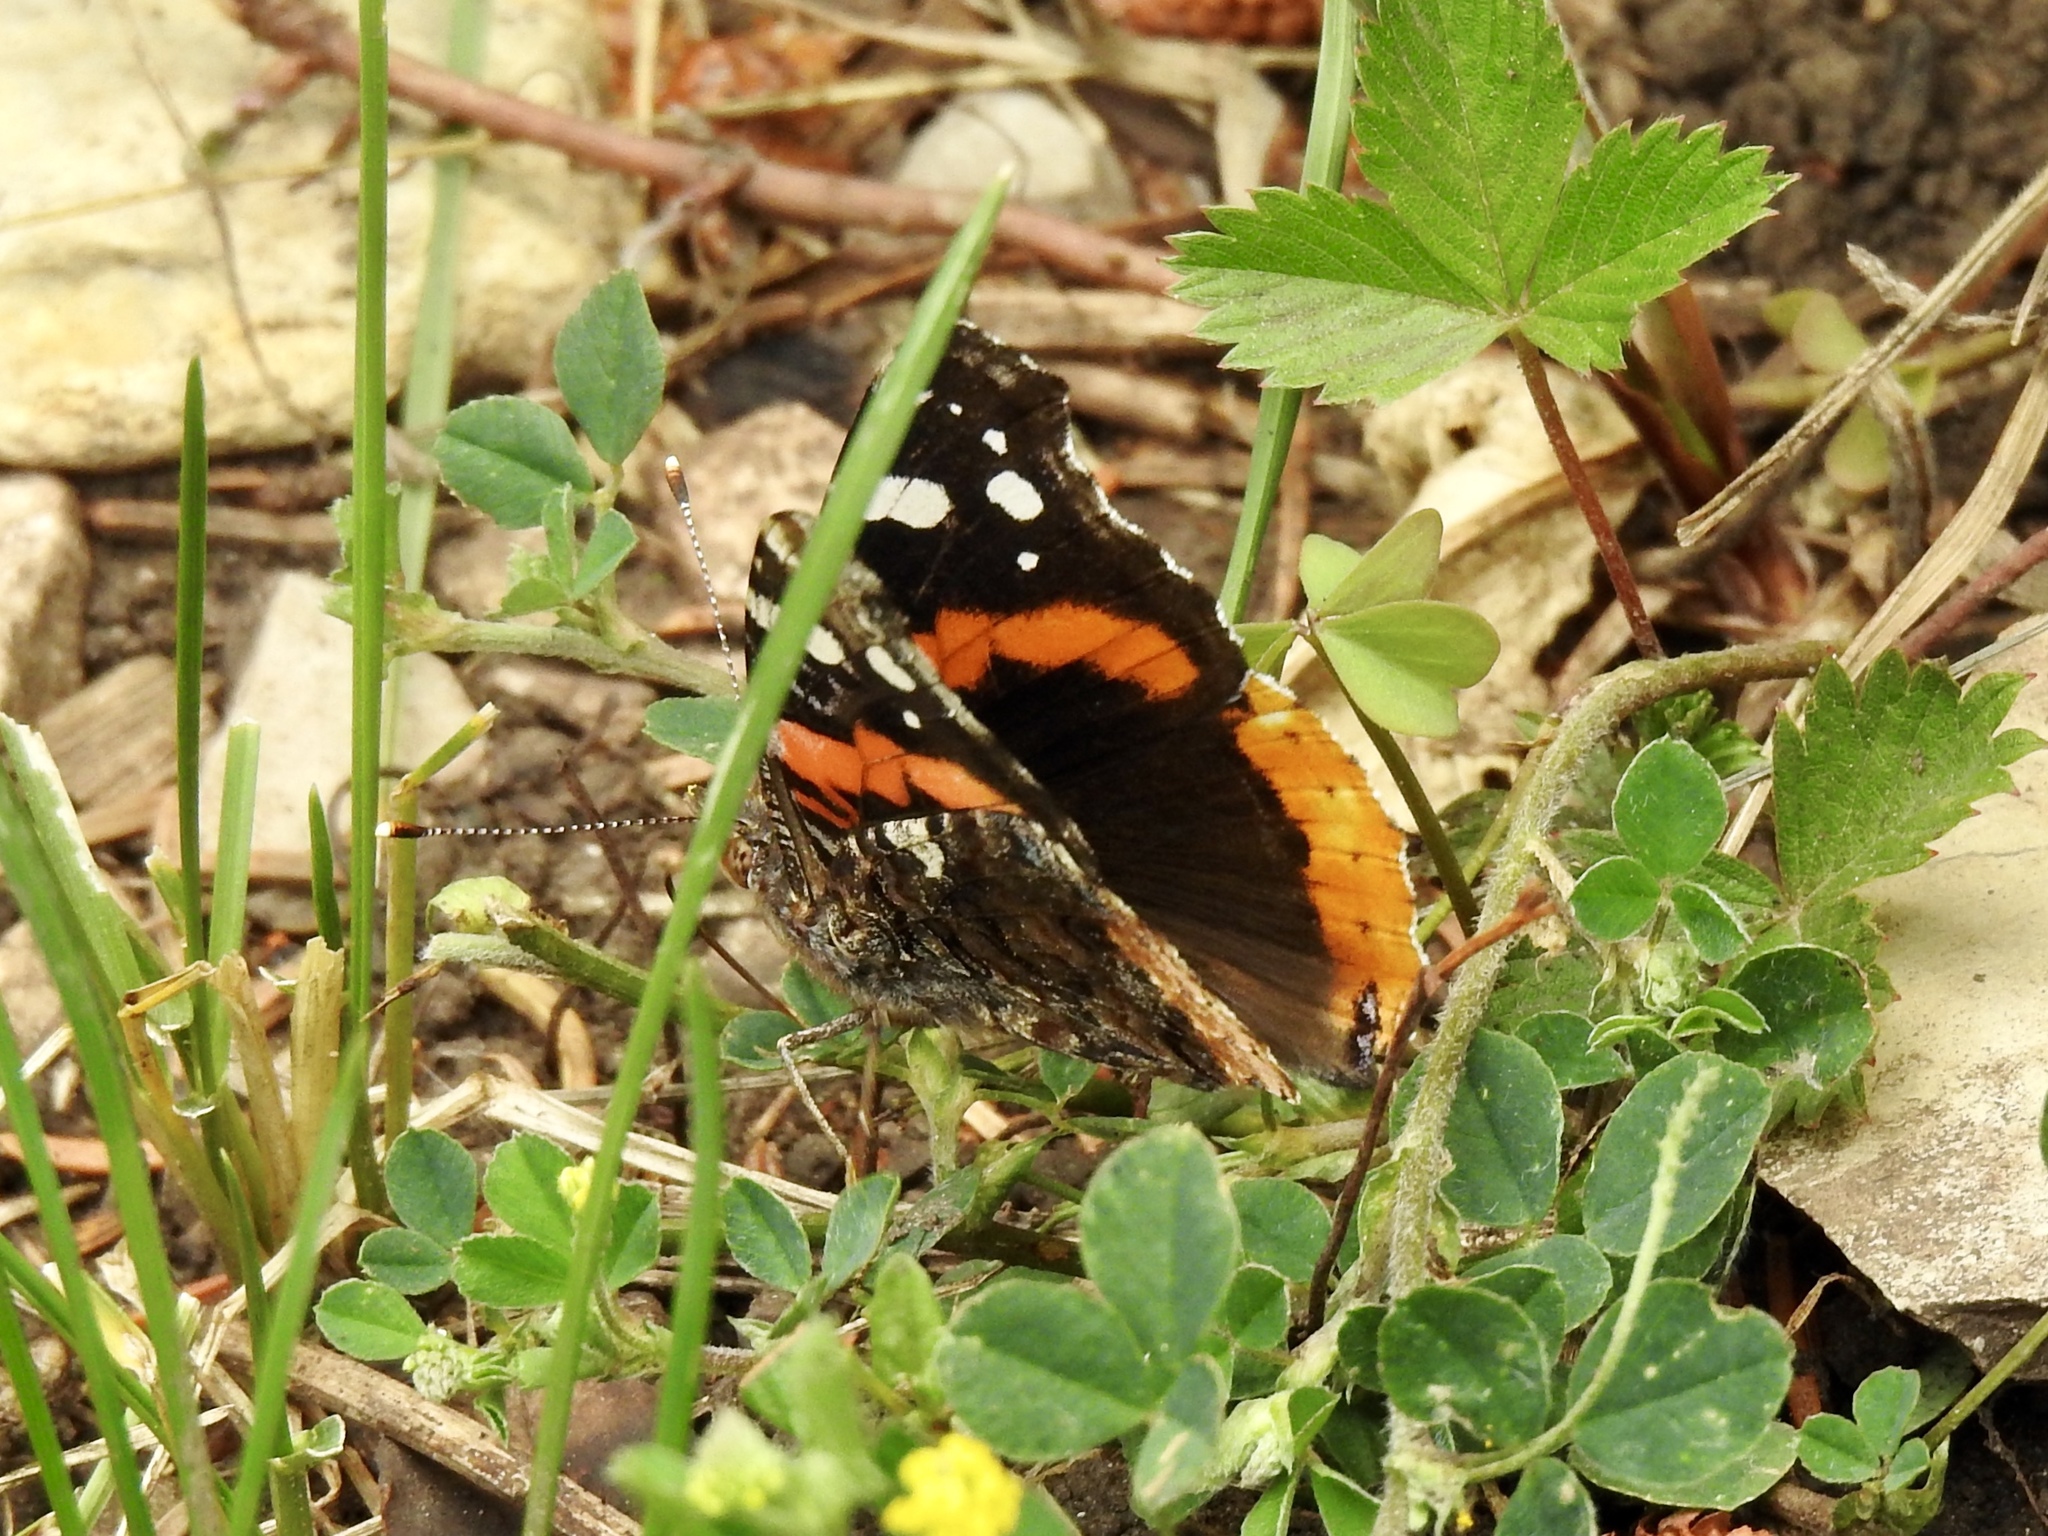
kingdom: Animalia
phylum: Arthropoda
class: Insecta
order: Lepidoptera
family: Nymphalidae
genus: Vanessa
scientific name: Vanessa atalanta
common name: Red admiral
